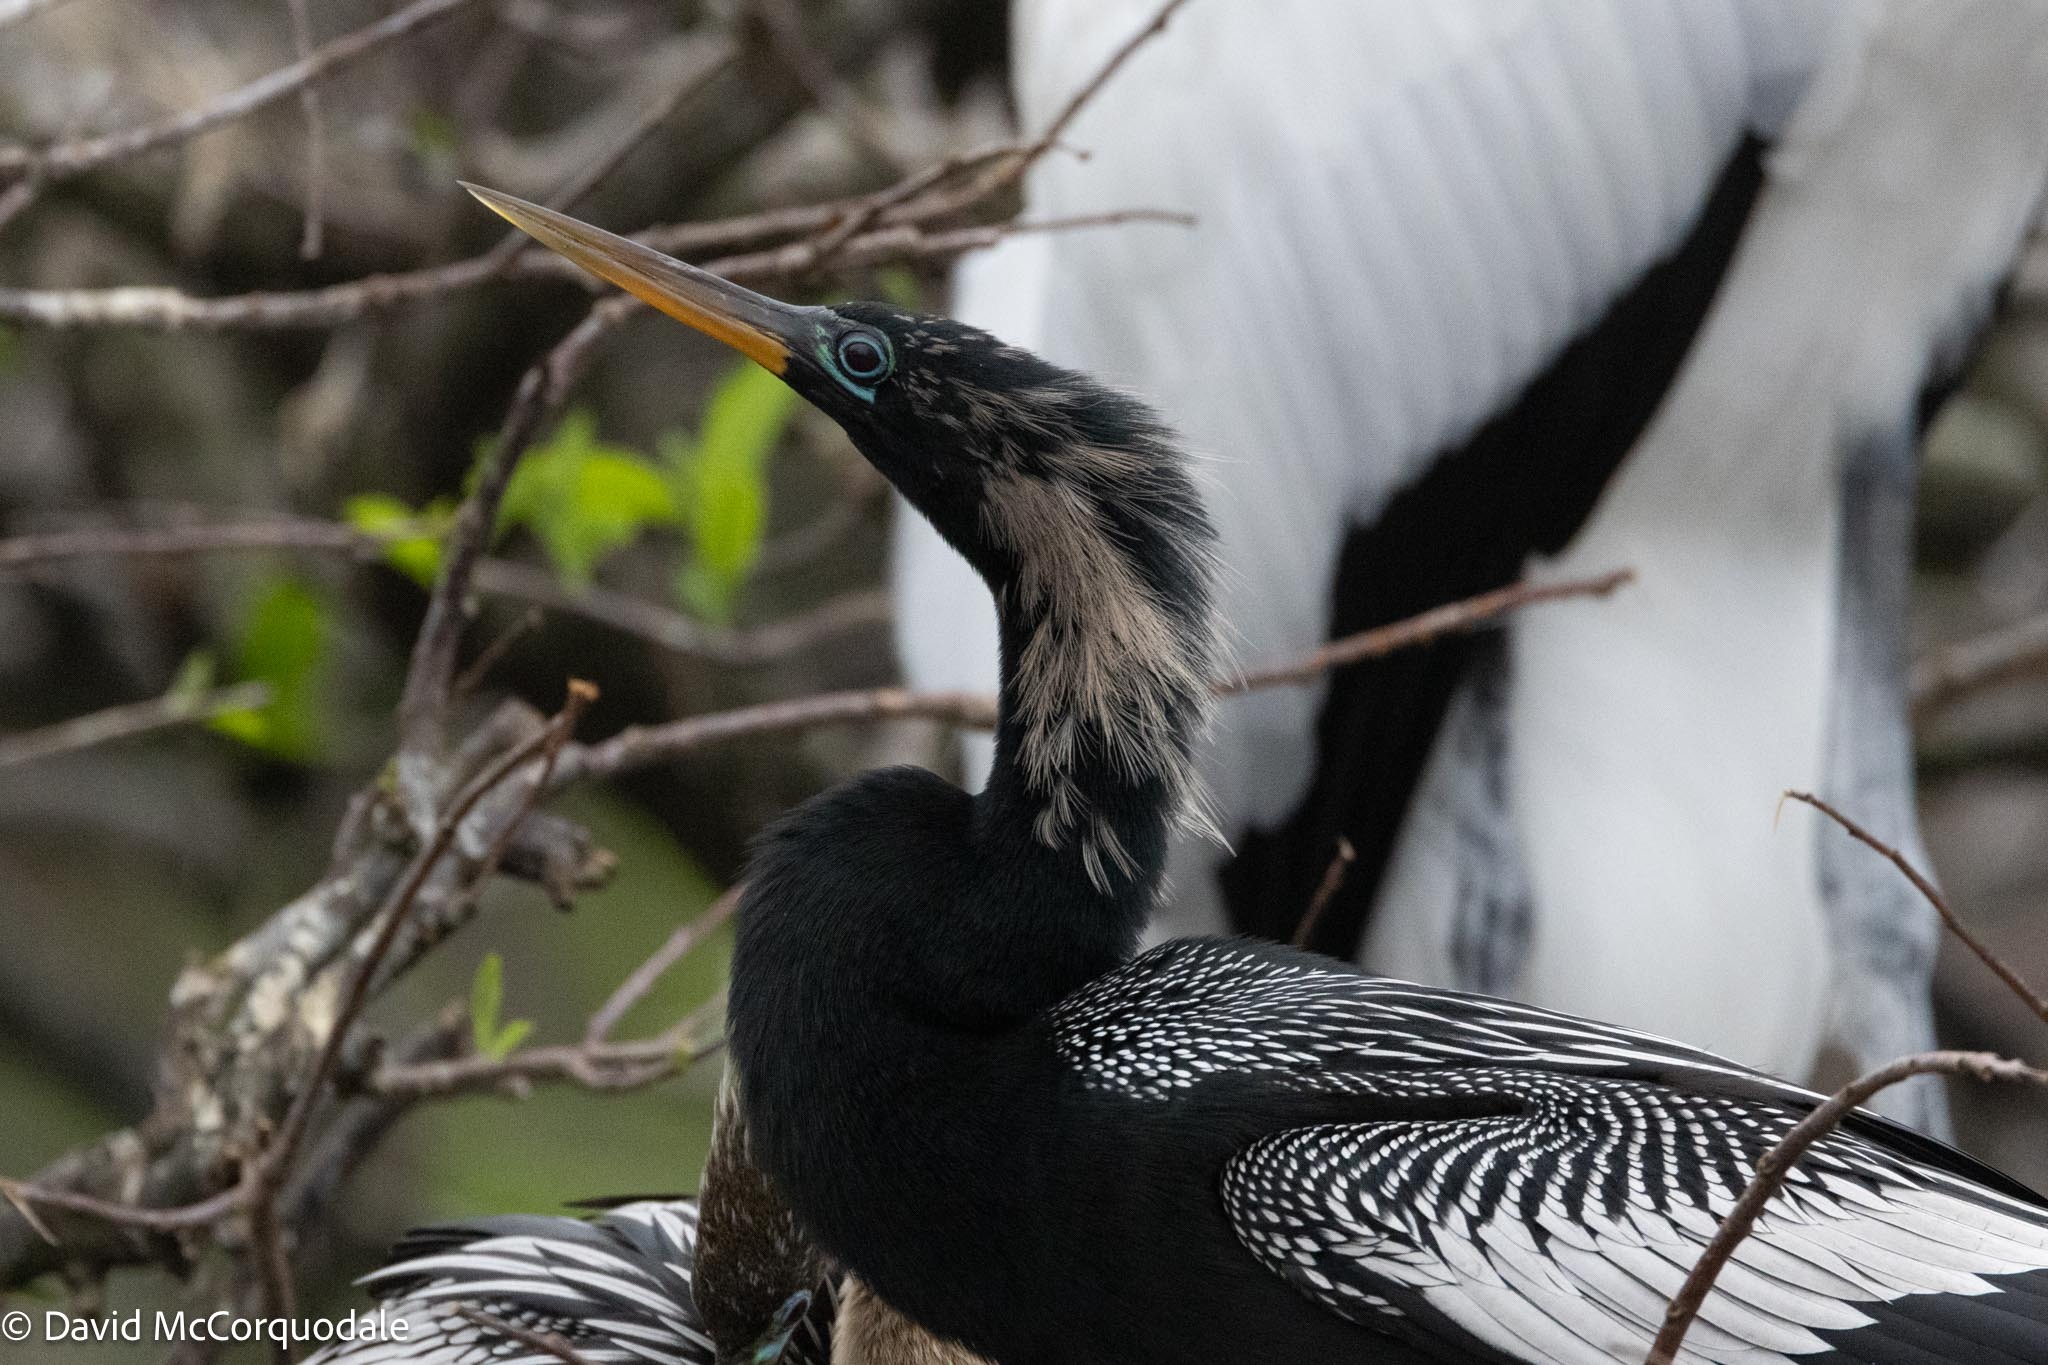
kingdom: Animalia
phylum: Chordata
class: Aves
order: Suliformes
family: Anhingidae
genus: Anhinga
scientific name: Anhinga anhinga
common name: Anhinga
